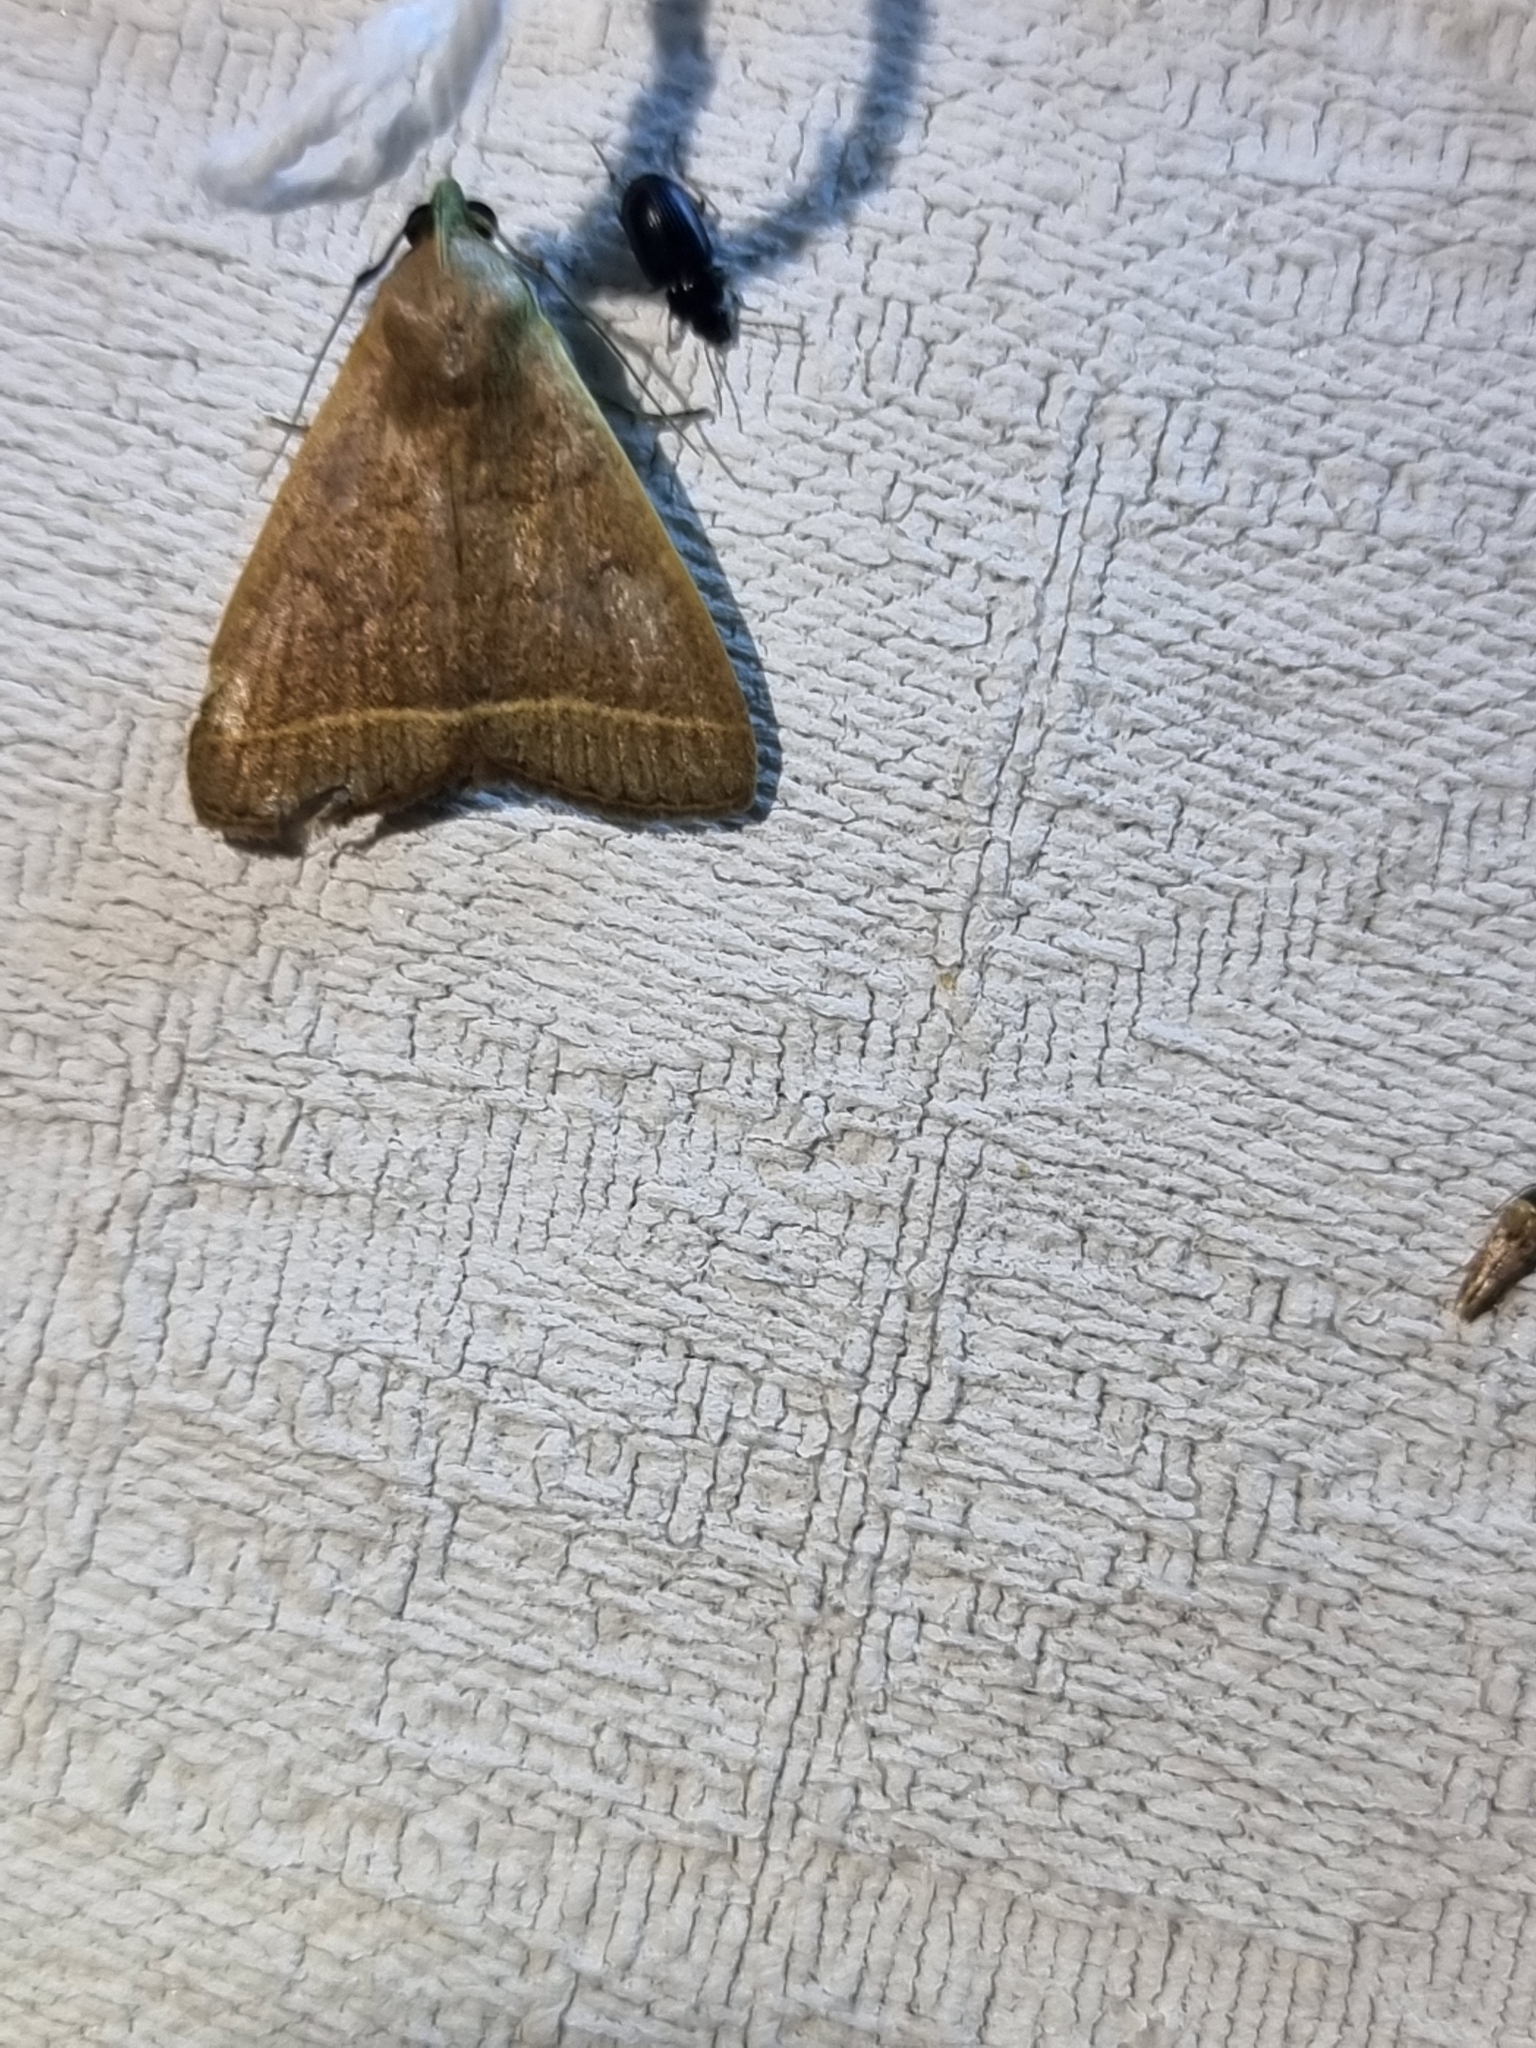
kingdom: Animalia
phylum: Arthropoda
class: Insecta
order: Lepidoptera
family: Erebidae
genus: Simplicia
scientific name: Simplicia cornicalis
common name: Tiki hut litter moth
